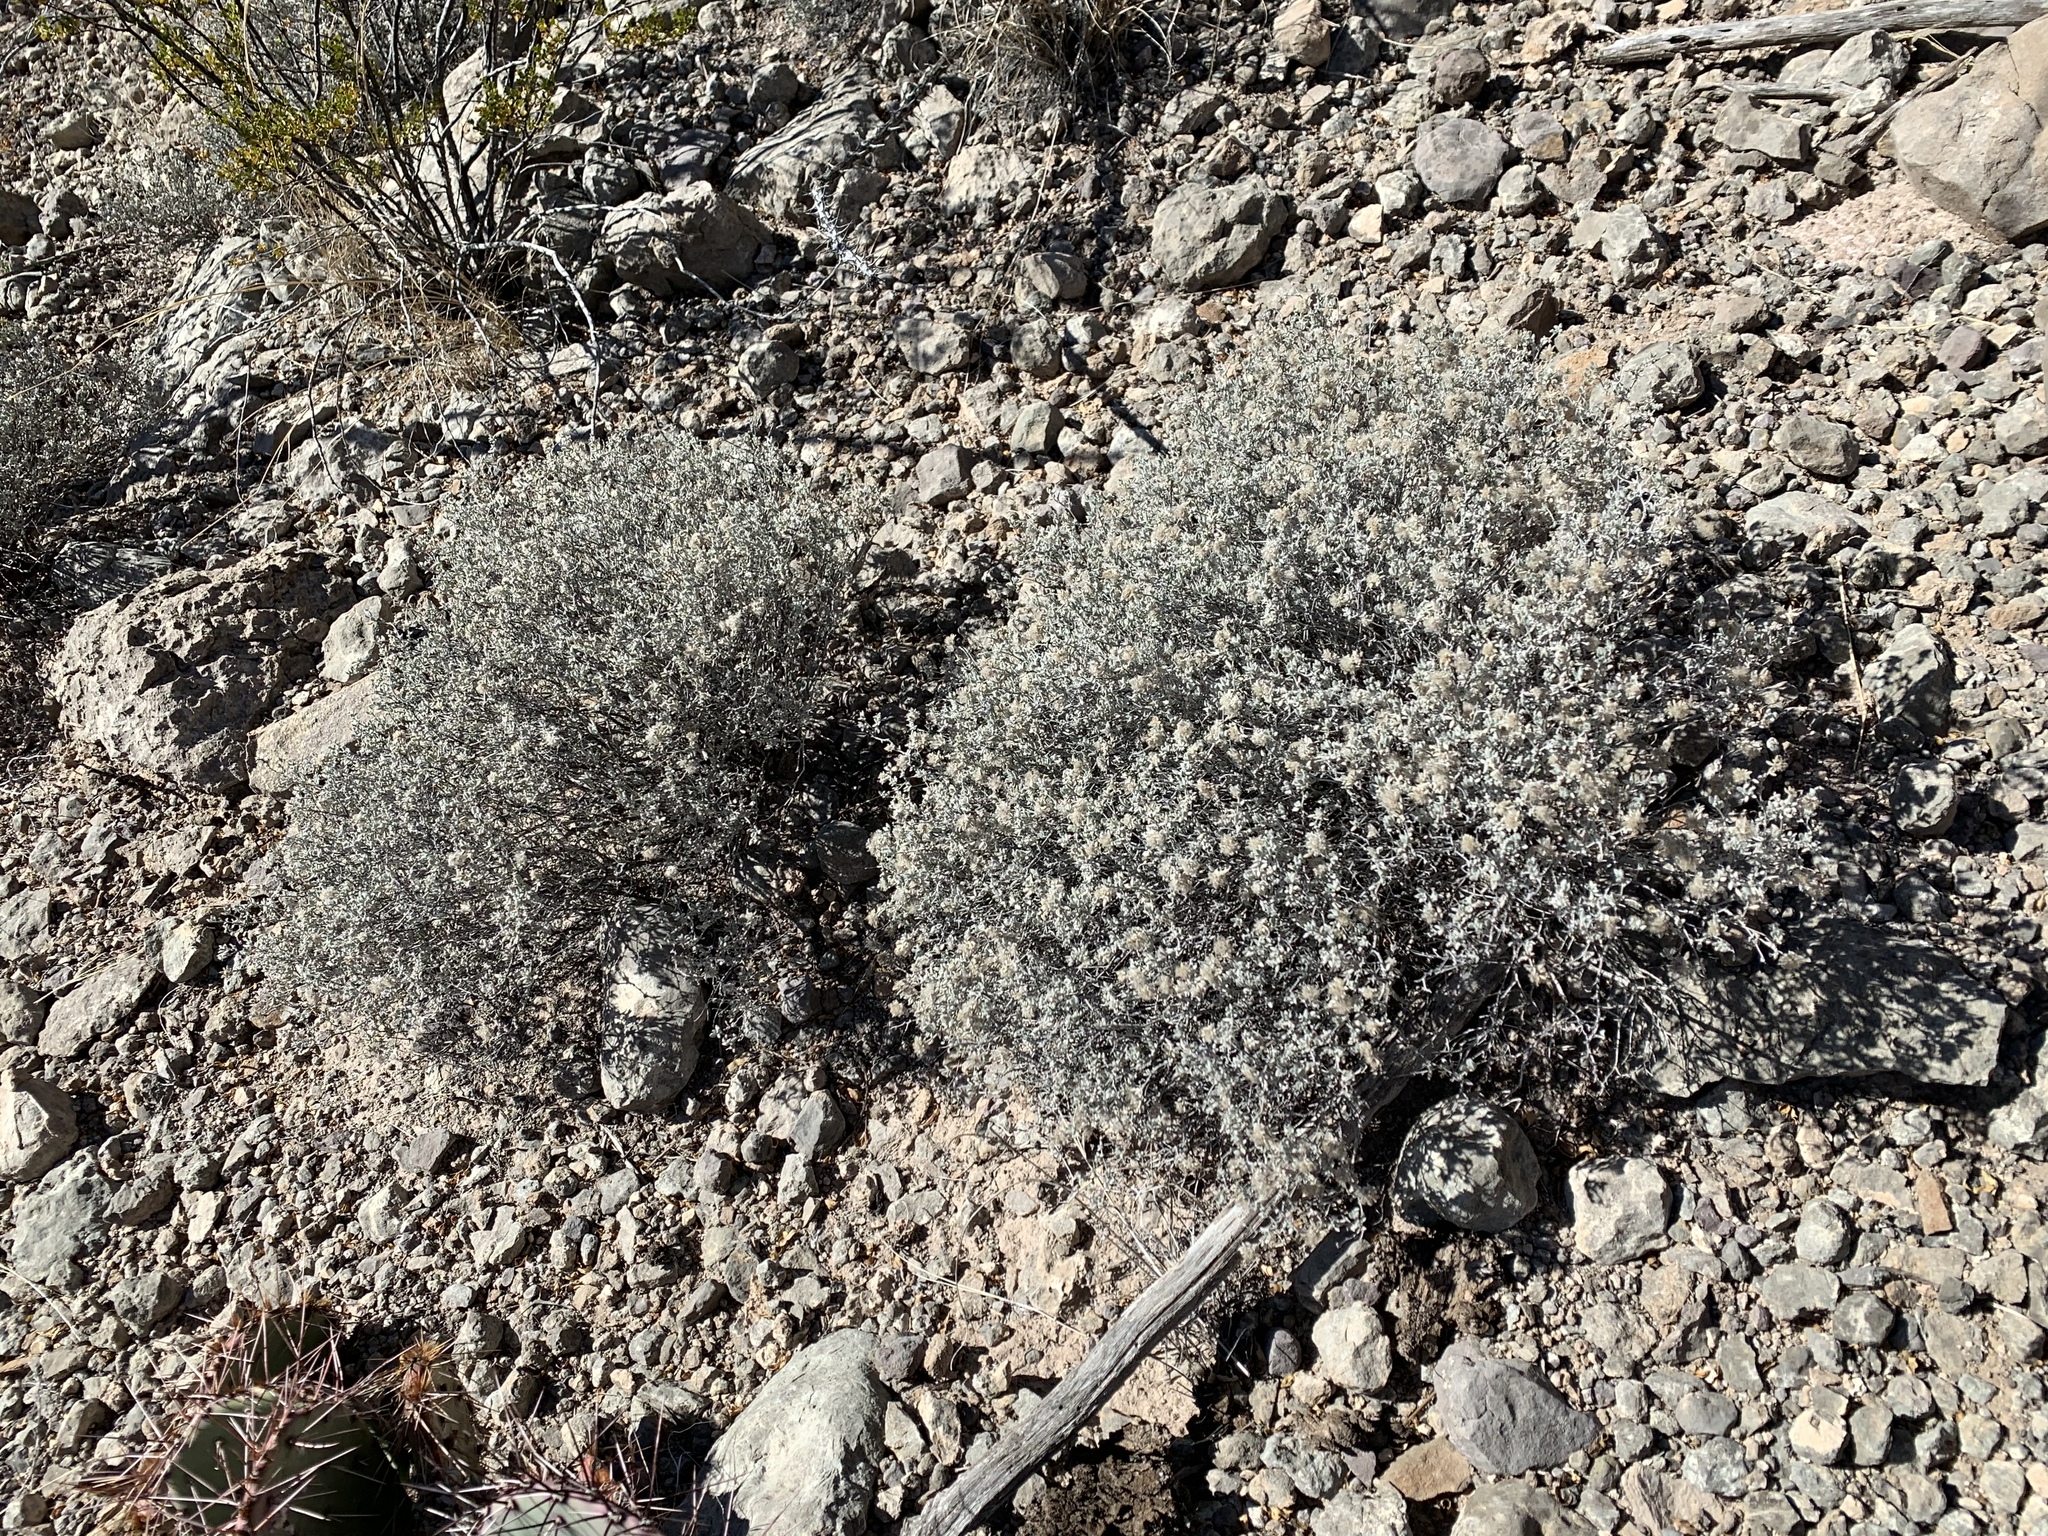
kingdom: Plantae
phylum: Tracheophyta
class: Magnoliopsida
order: Boraginales
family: Ehretiaceae
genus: Tiquilia
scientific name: Tiquilia canescens
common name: Hairy tiquilia
